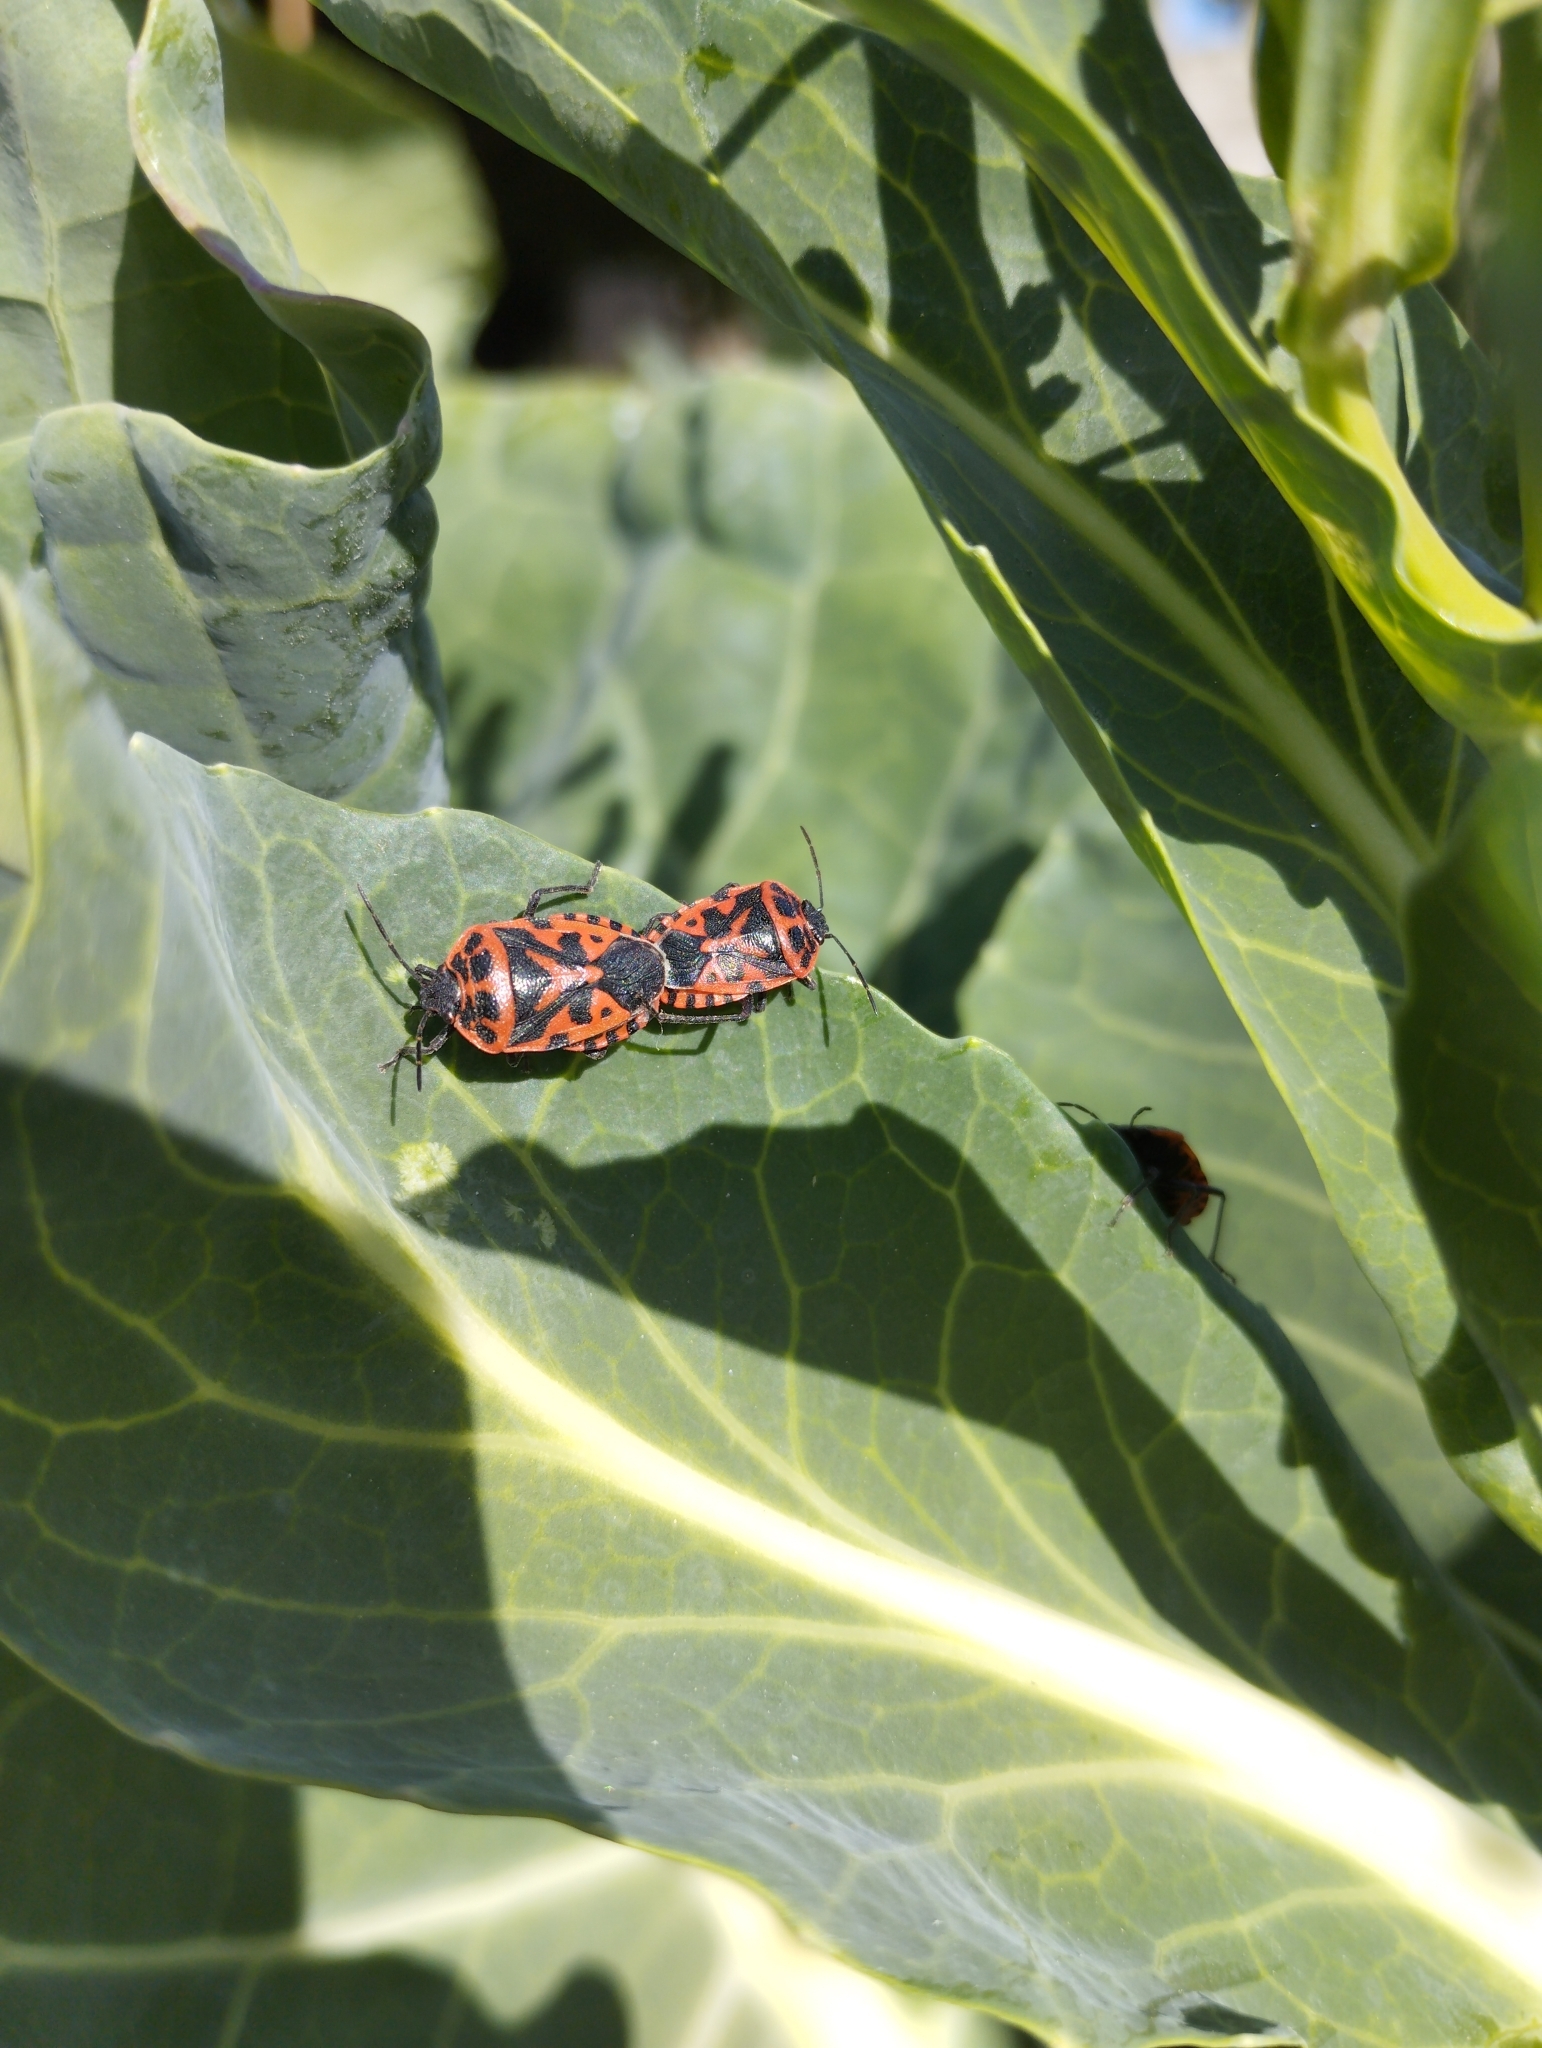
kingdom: Animalia
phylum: Arthropoda
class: Insecta
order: Hemiptera
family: Pentatomidae
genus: Eurydema
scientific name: Eurydema ventralis
